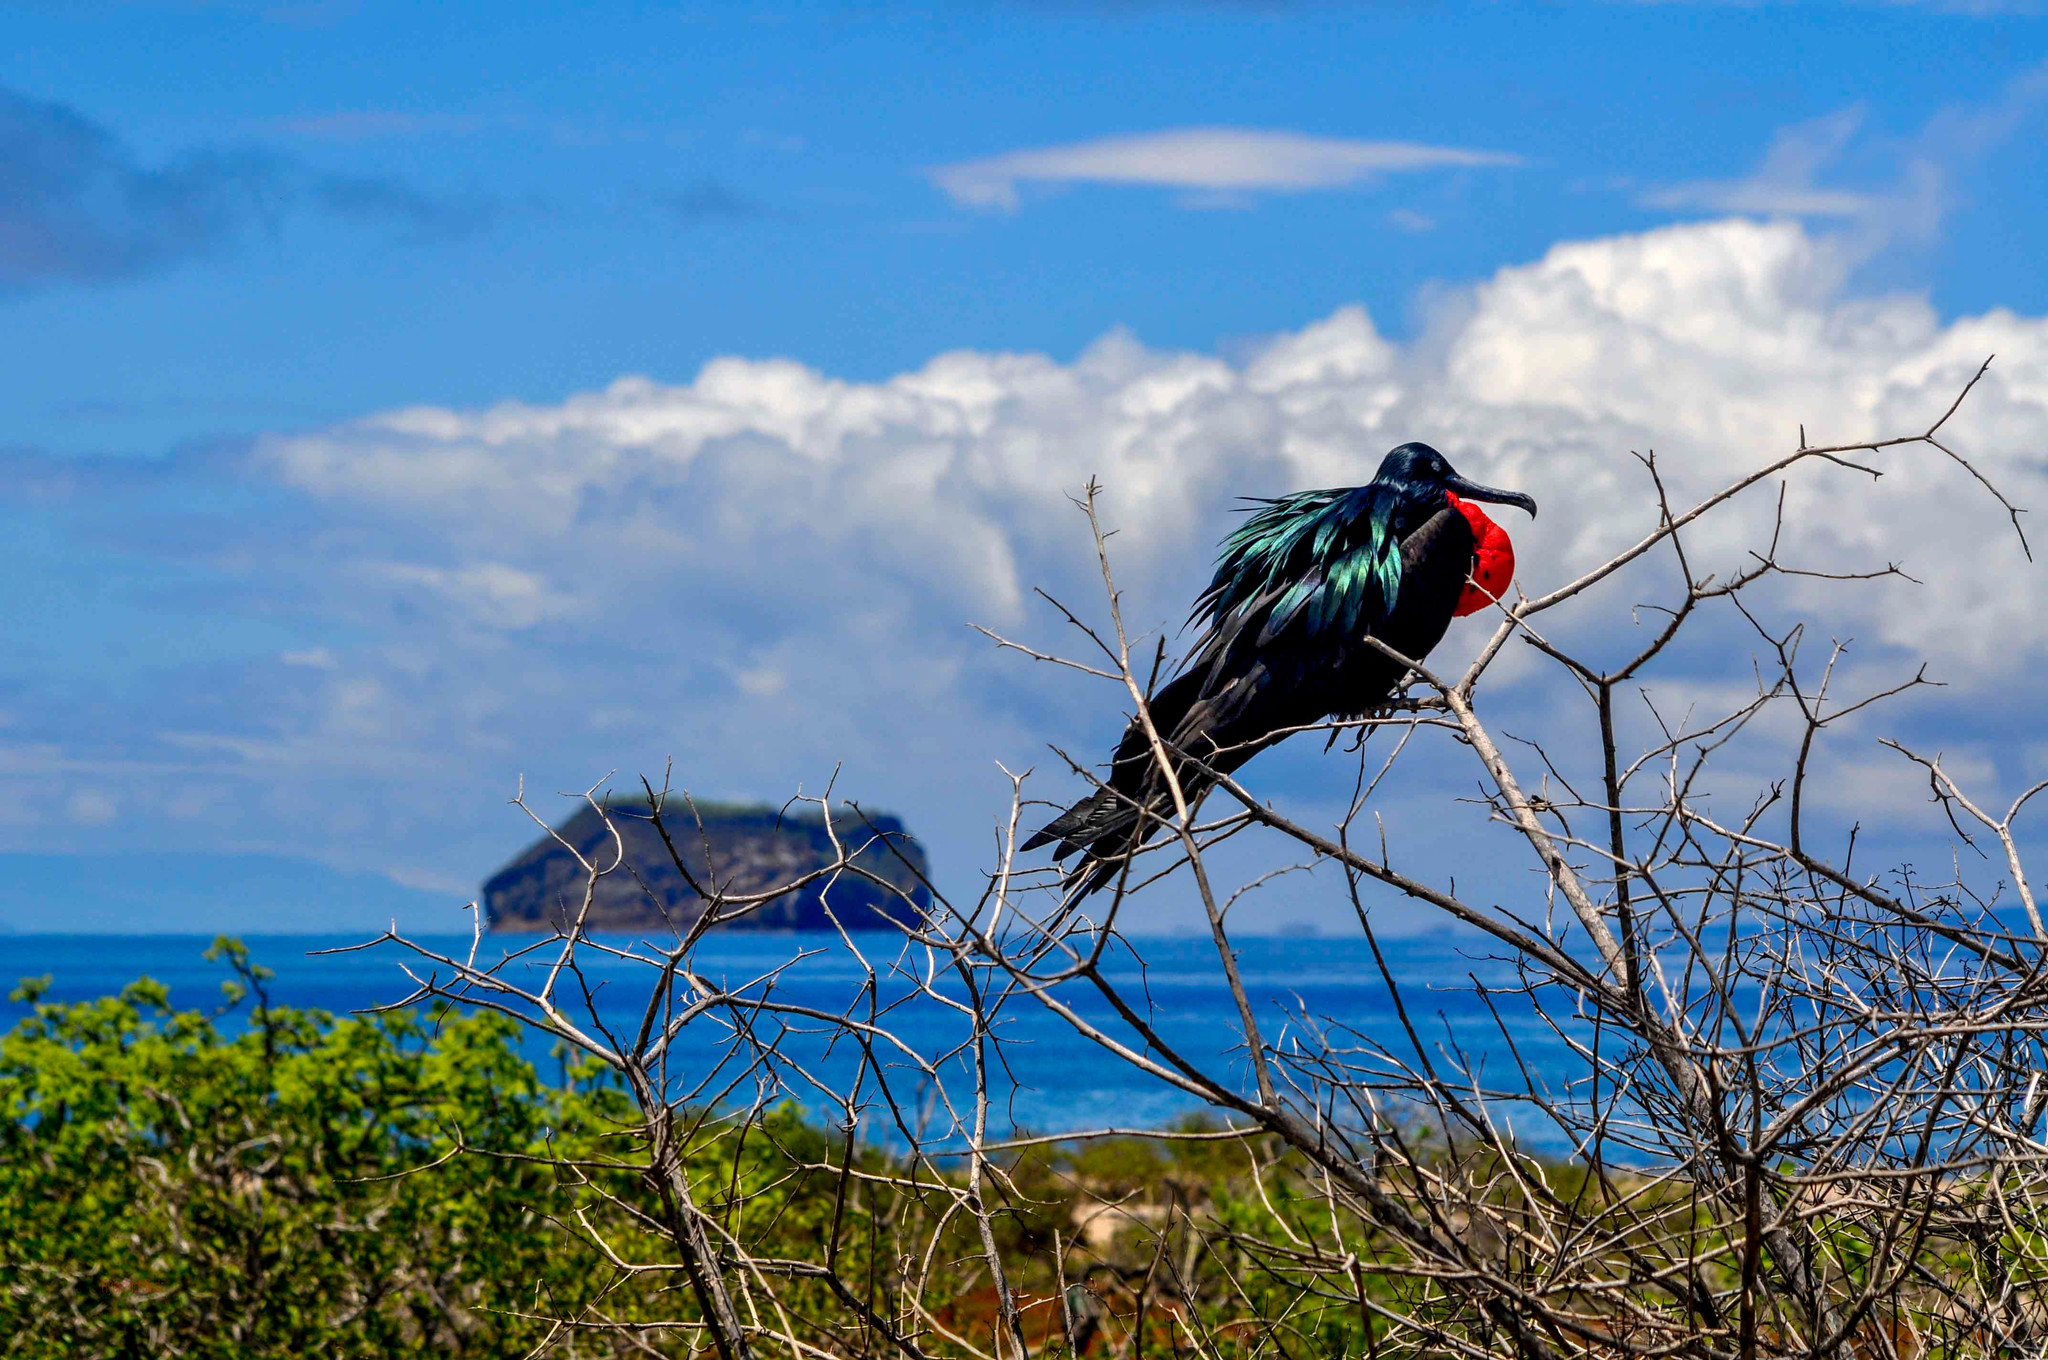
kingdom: Animalia
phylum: Chordata
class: Aves
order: Suliformes
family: Fregatidae
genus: Fregata
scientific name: Fregata minor
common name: Great frigatebird
